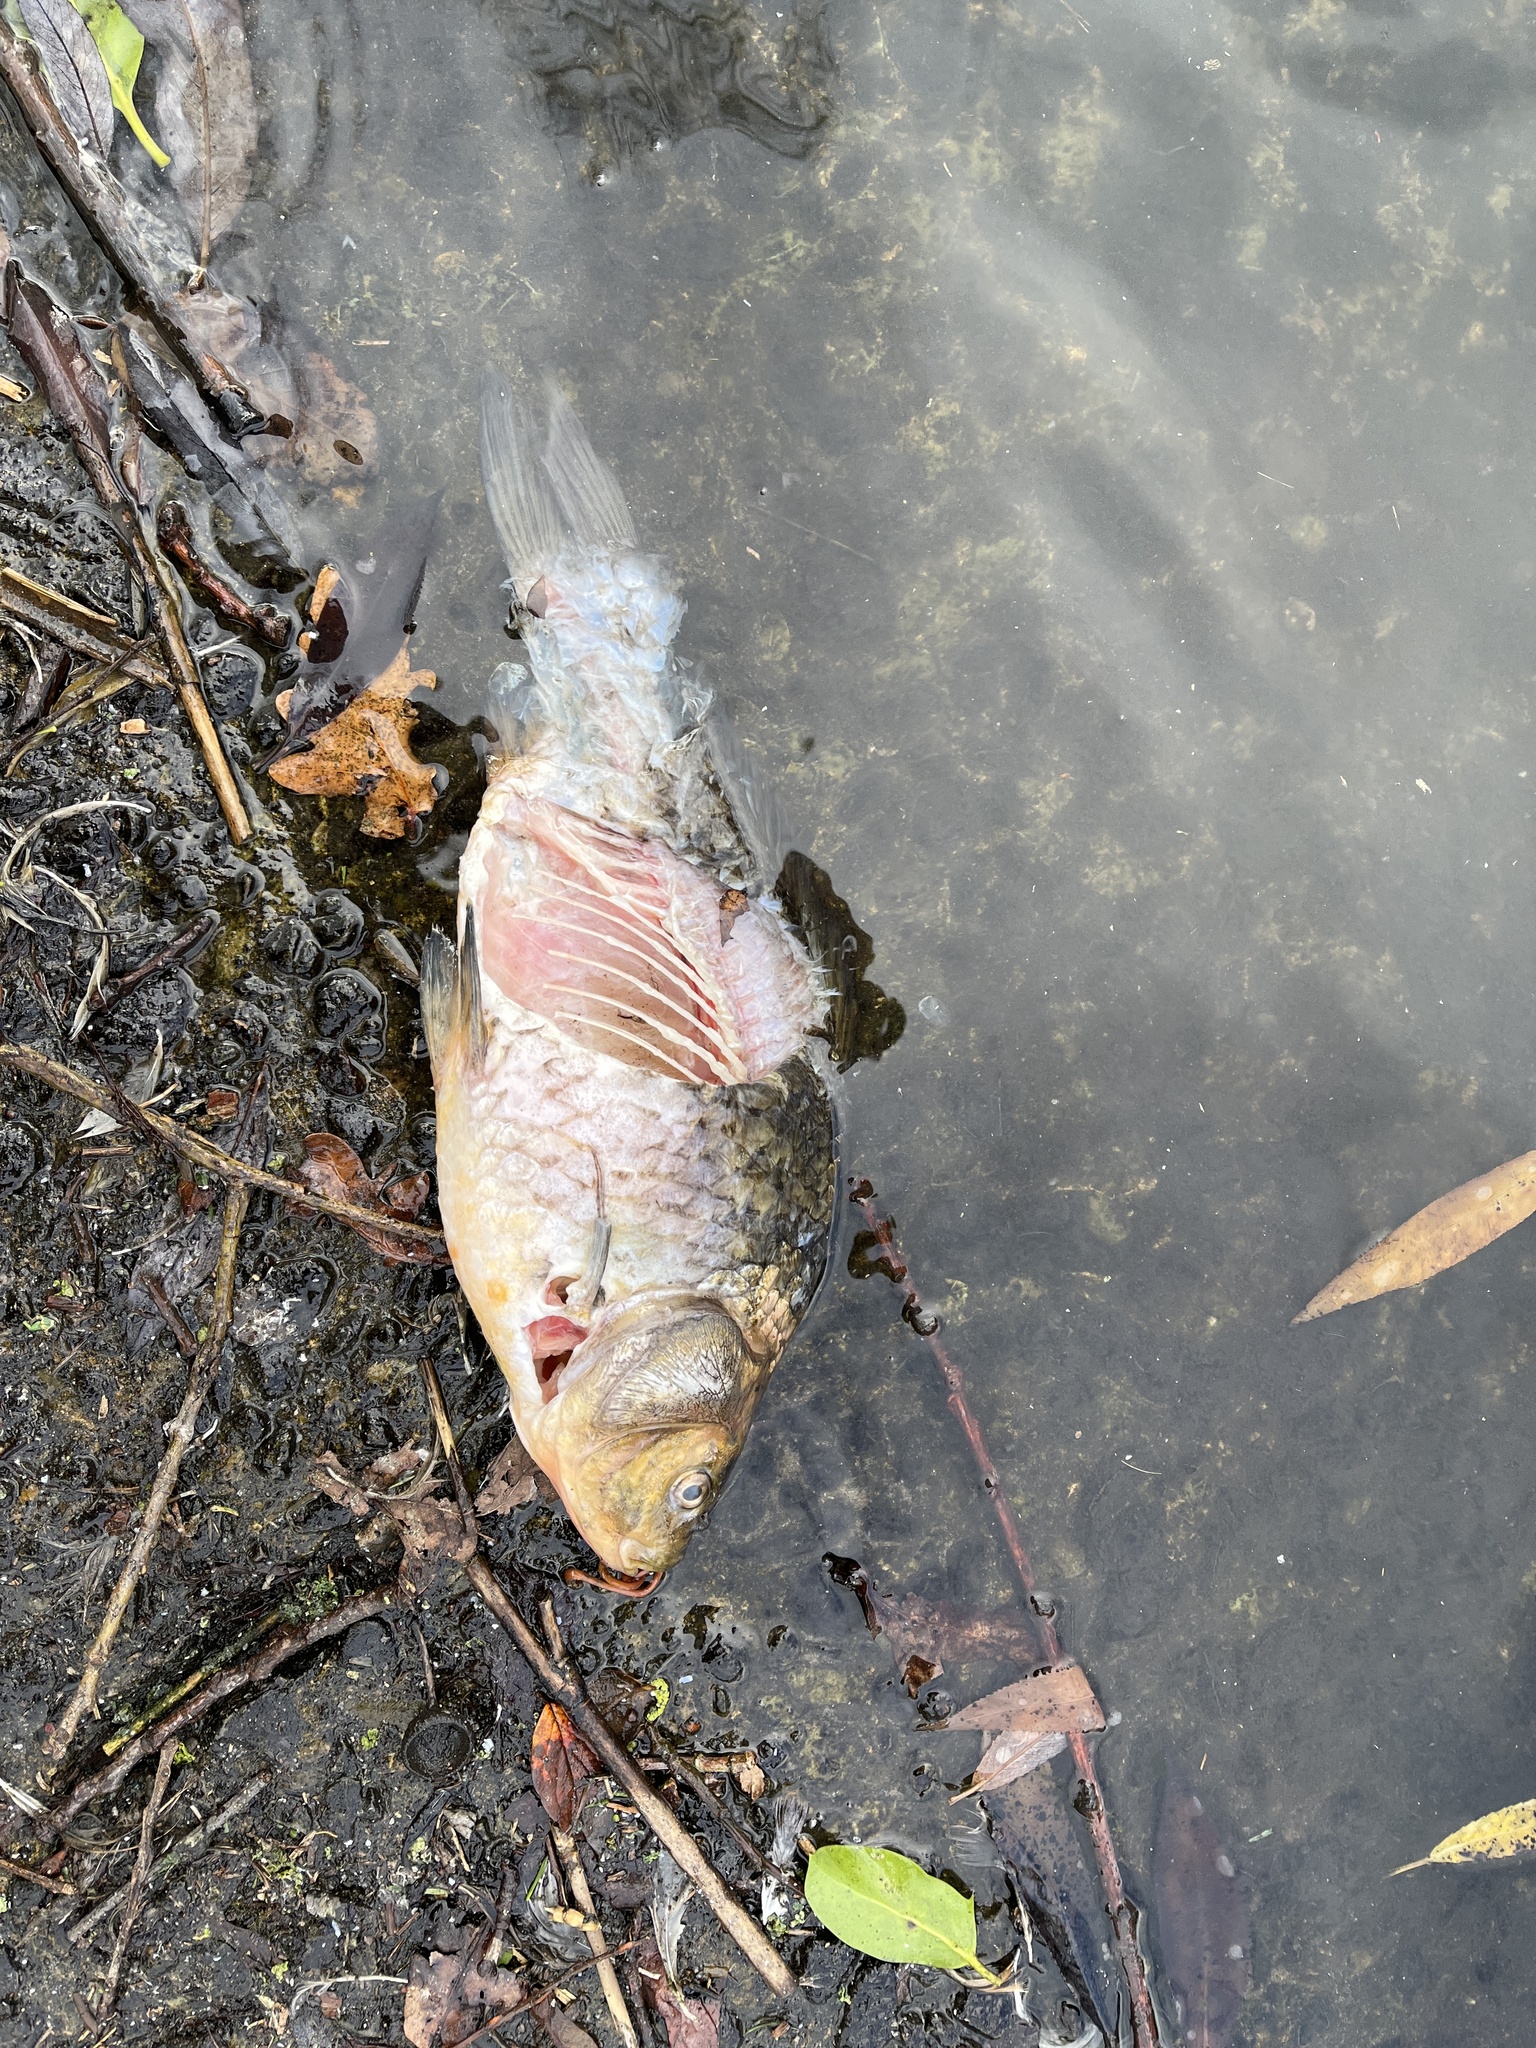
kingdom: Animalia
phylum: Chordata
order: Cypriniformes
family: Cyprinidae
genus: Carassius
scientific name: Carassius carassius
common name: Crucian carp
